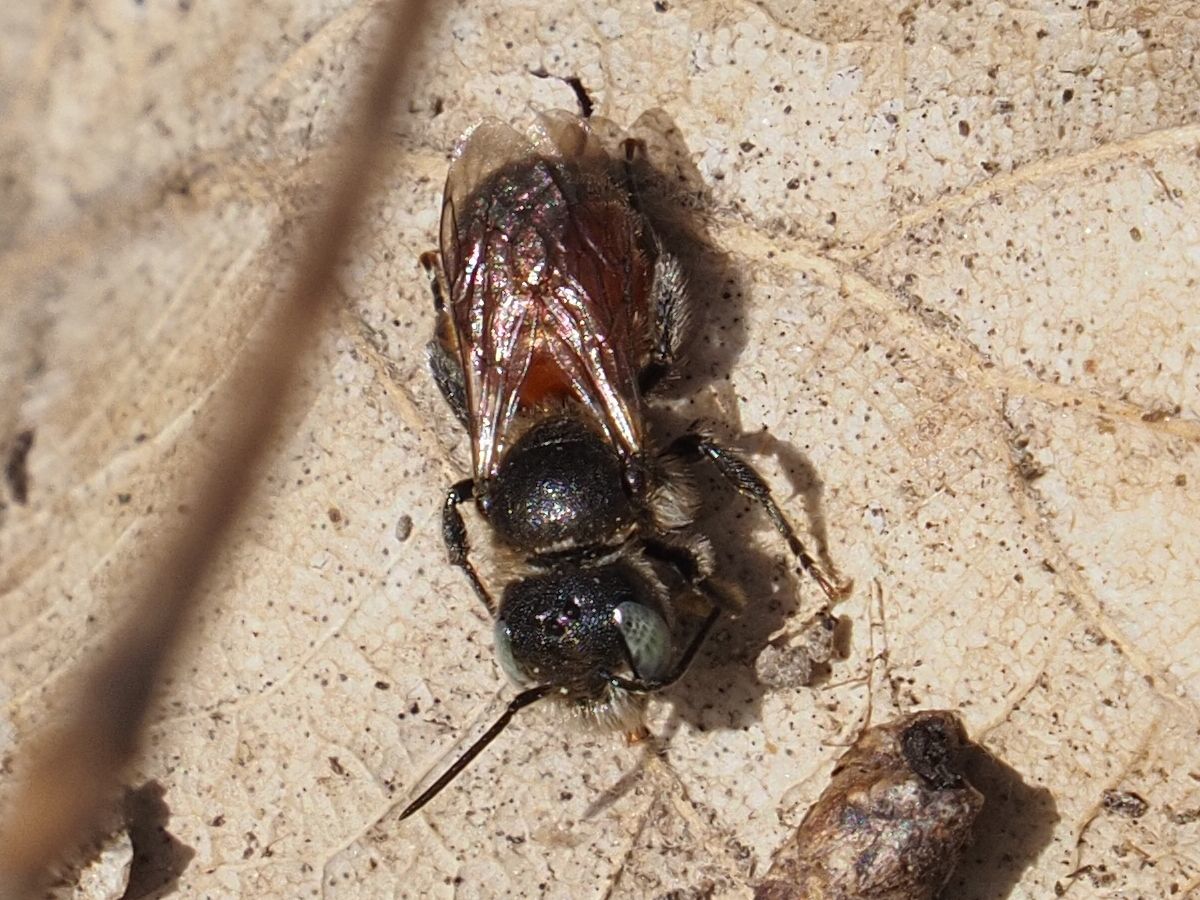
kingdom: Animalia
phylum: Arthropoda
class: Insecta
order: Hymenoptera
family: Megachilidae
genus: Osmia
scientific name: Osmia andrenoides
